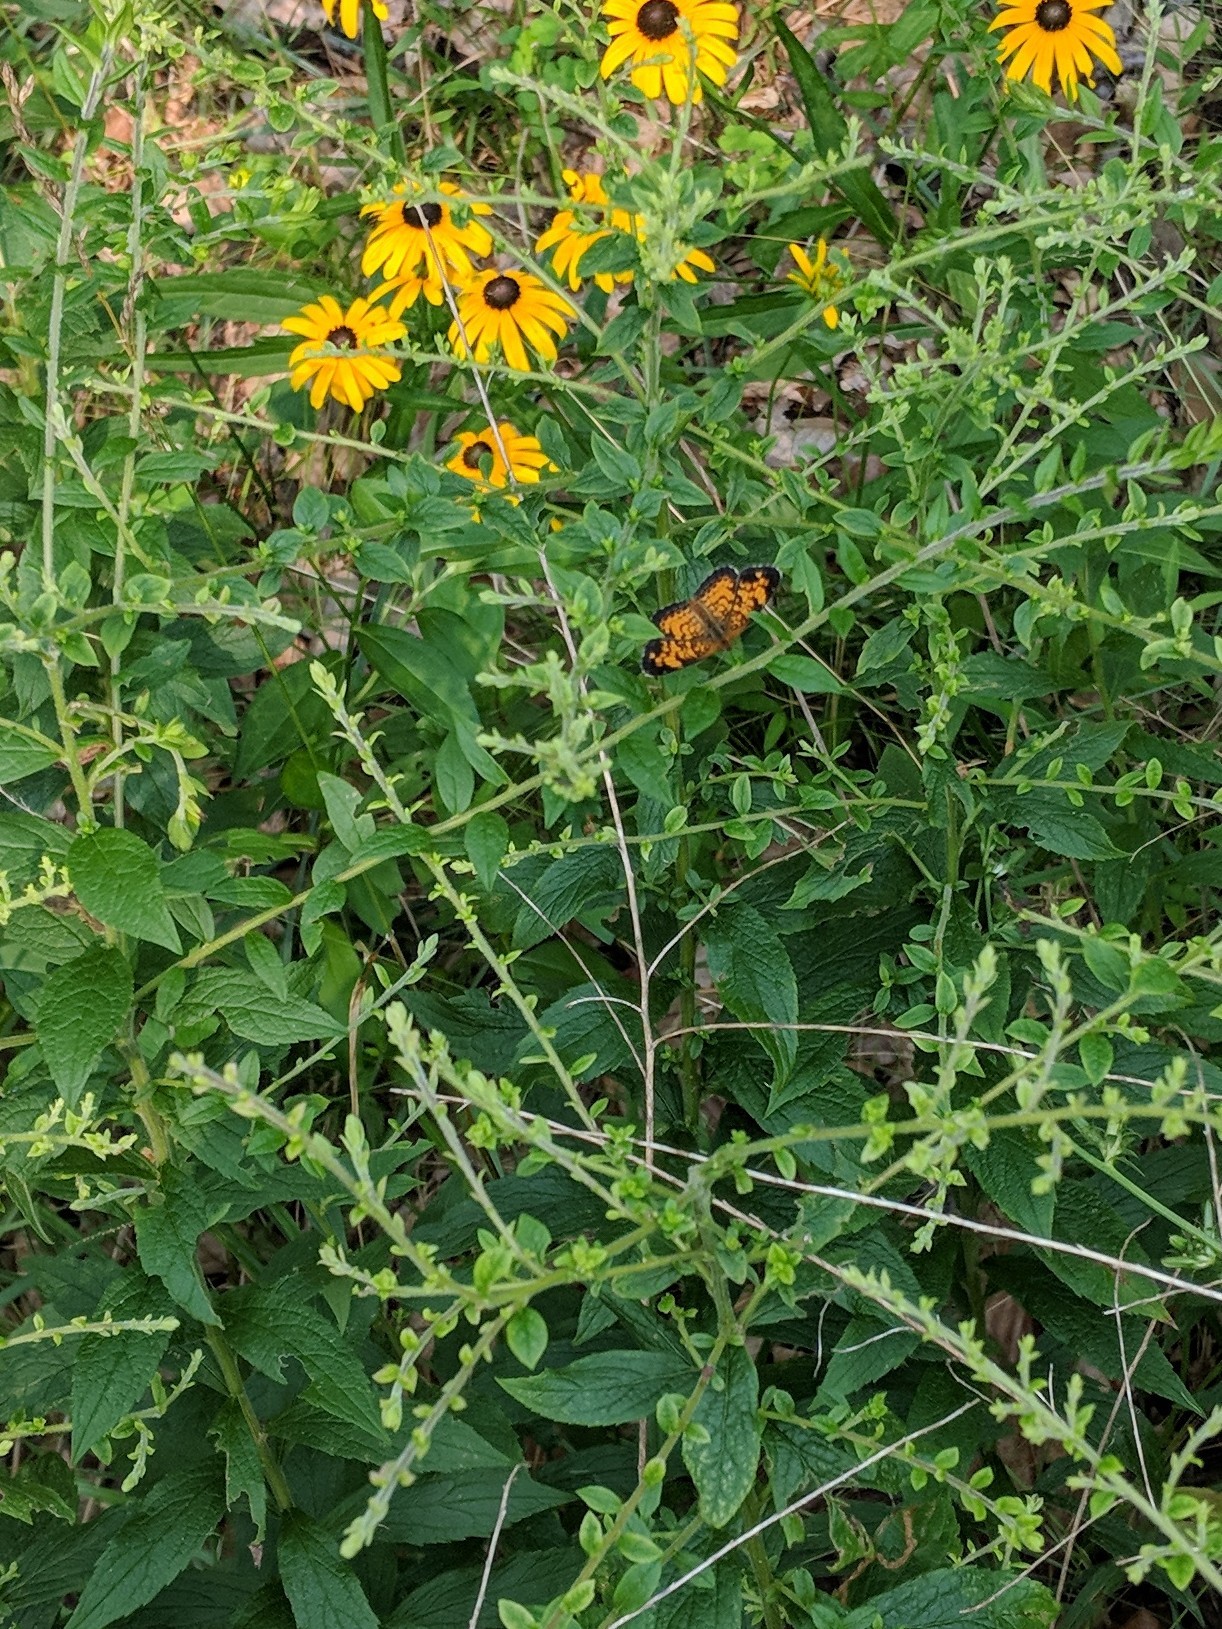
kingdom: Animalia
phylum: Arthropoda
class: Insecta
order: Lepidoptera
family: Nymphalidae
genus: Phyciodes
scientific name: Phyciodes tharos
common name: Pearl crescent
